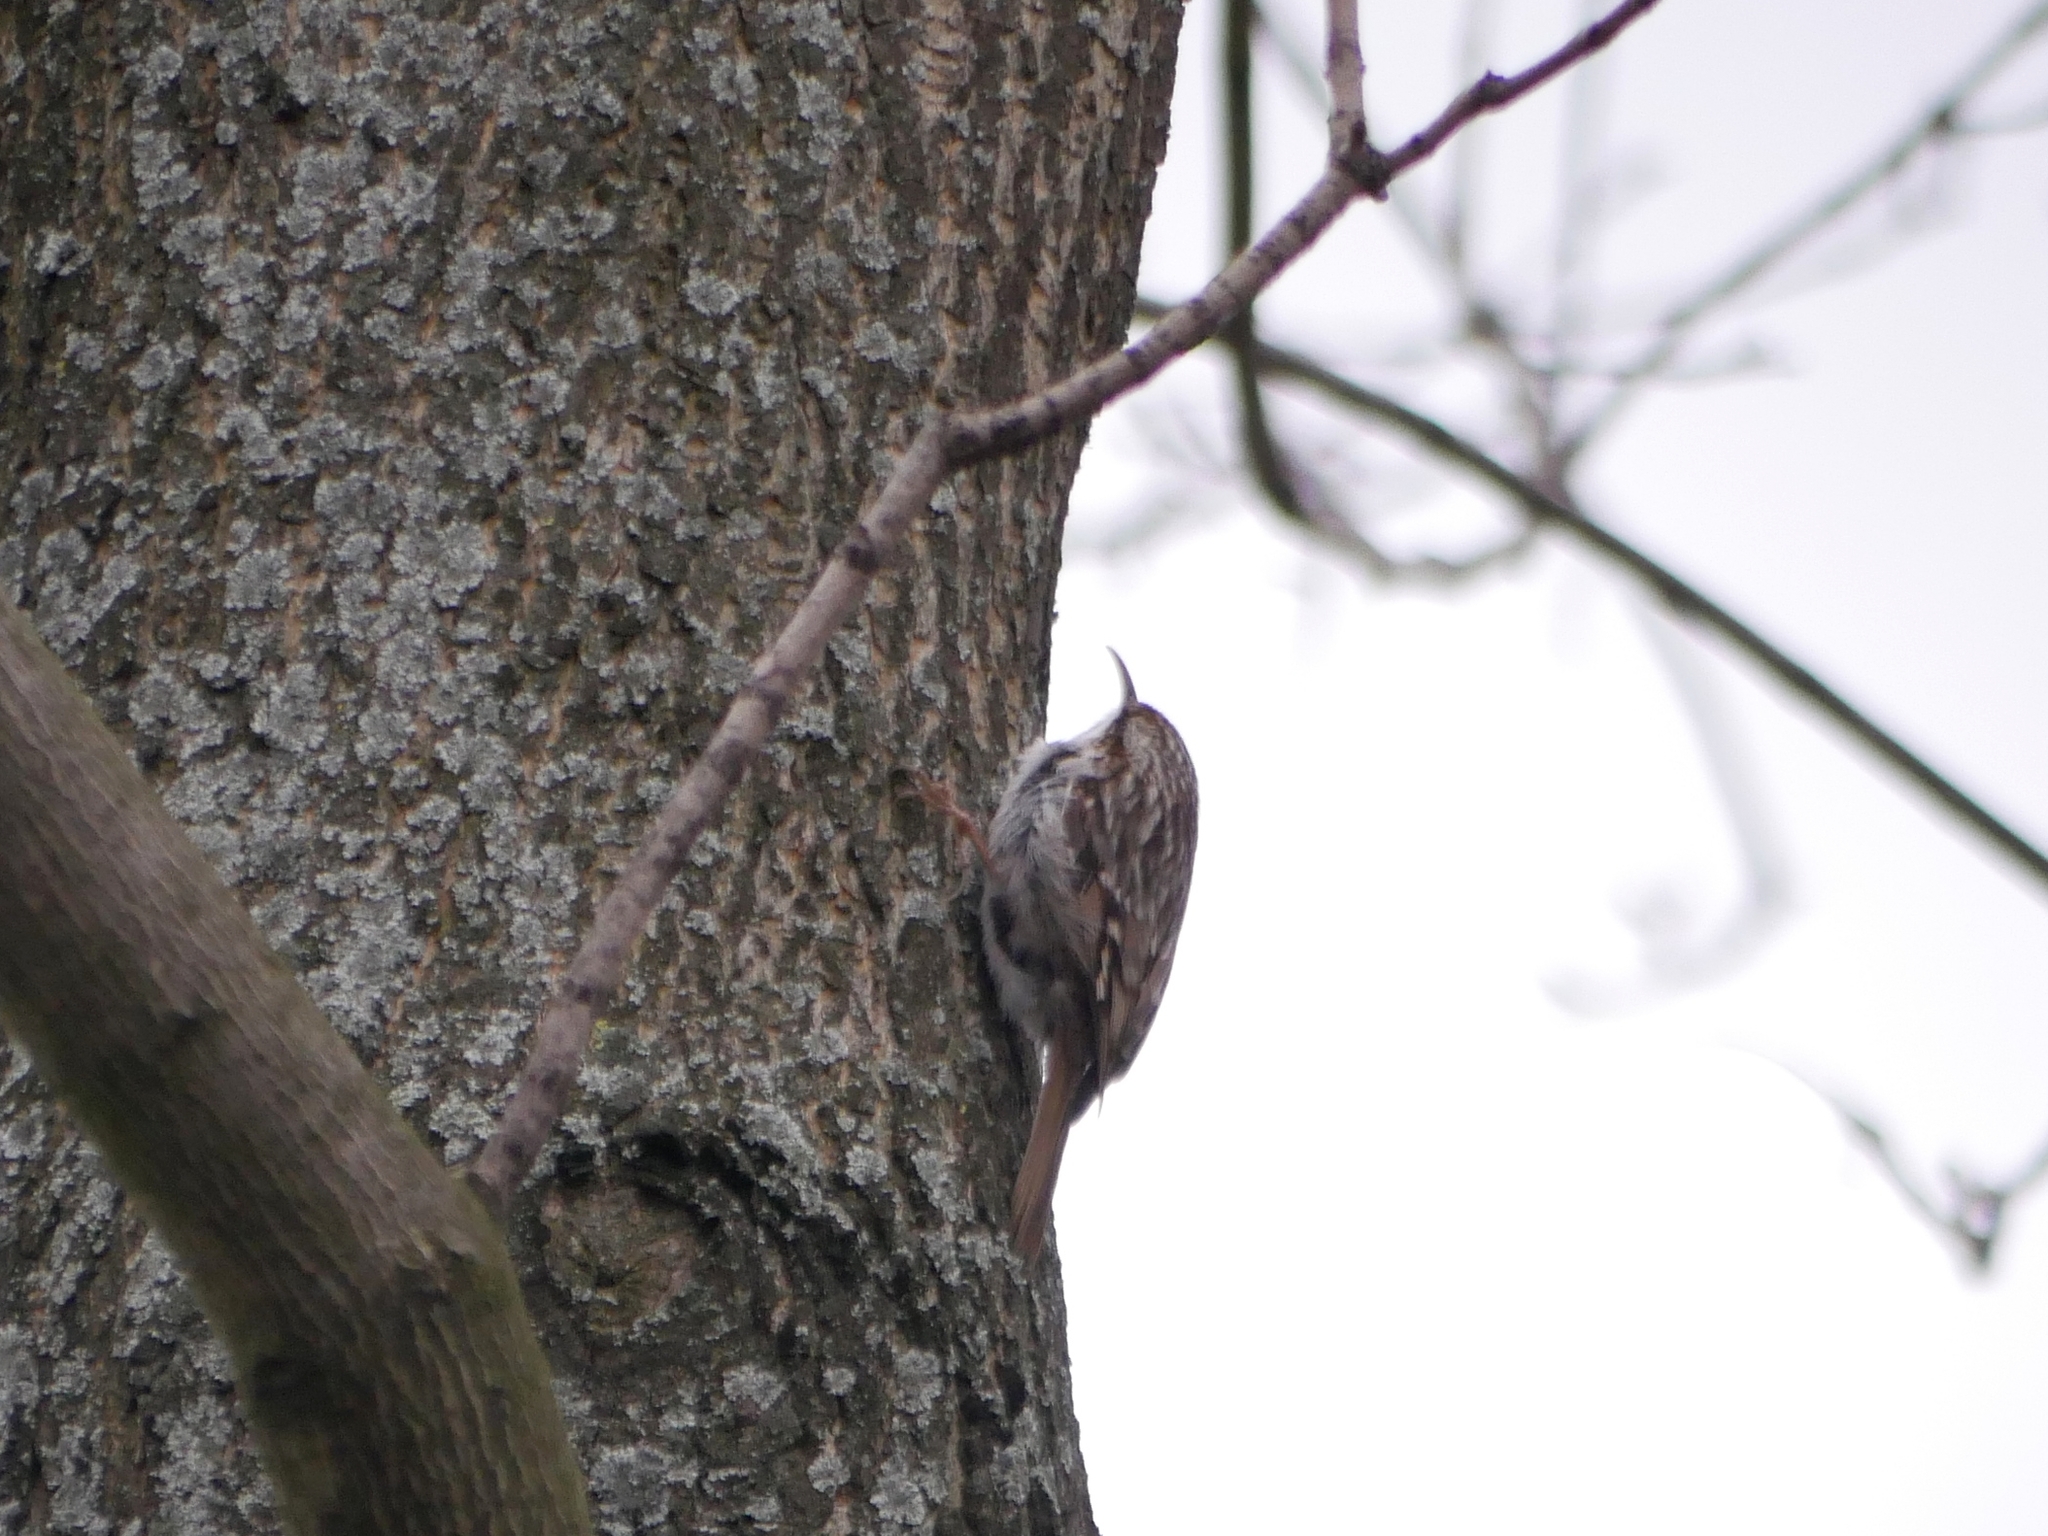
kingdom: Animalia
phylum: Chordata
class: Aves
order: Passeriformes
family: Certhiidae
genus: Certhia
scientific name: Certhia
